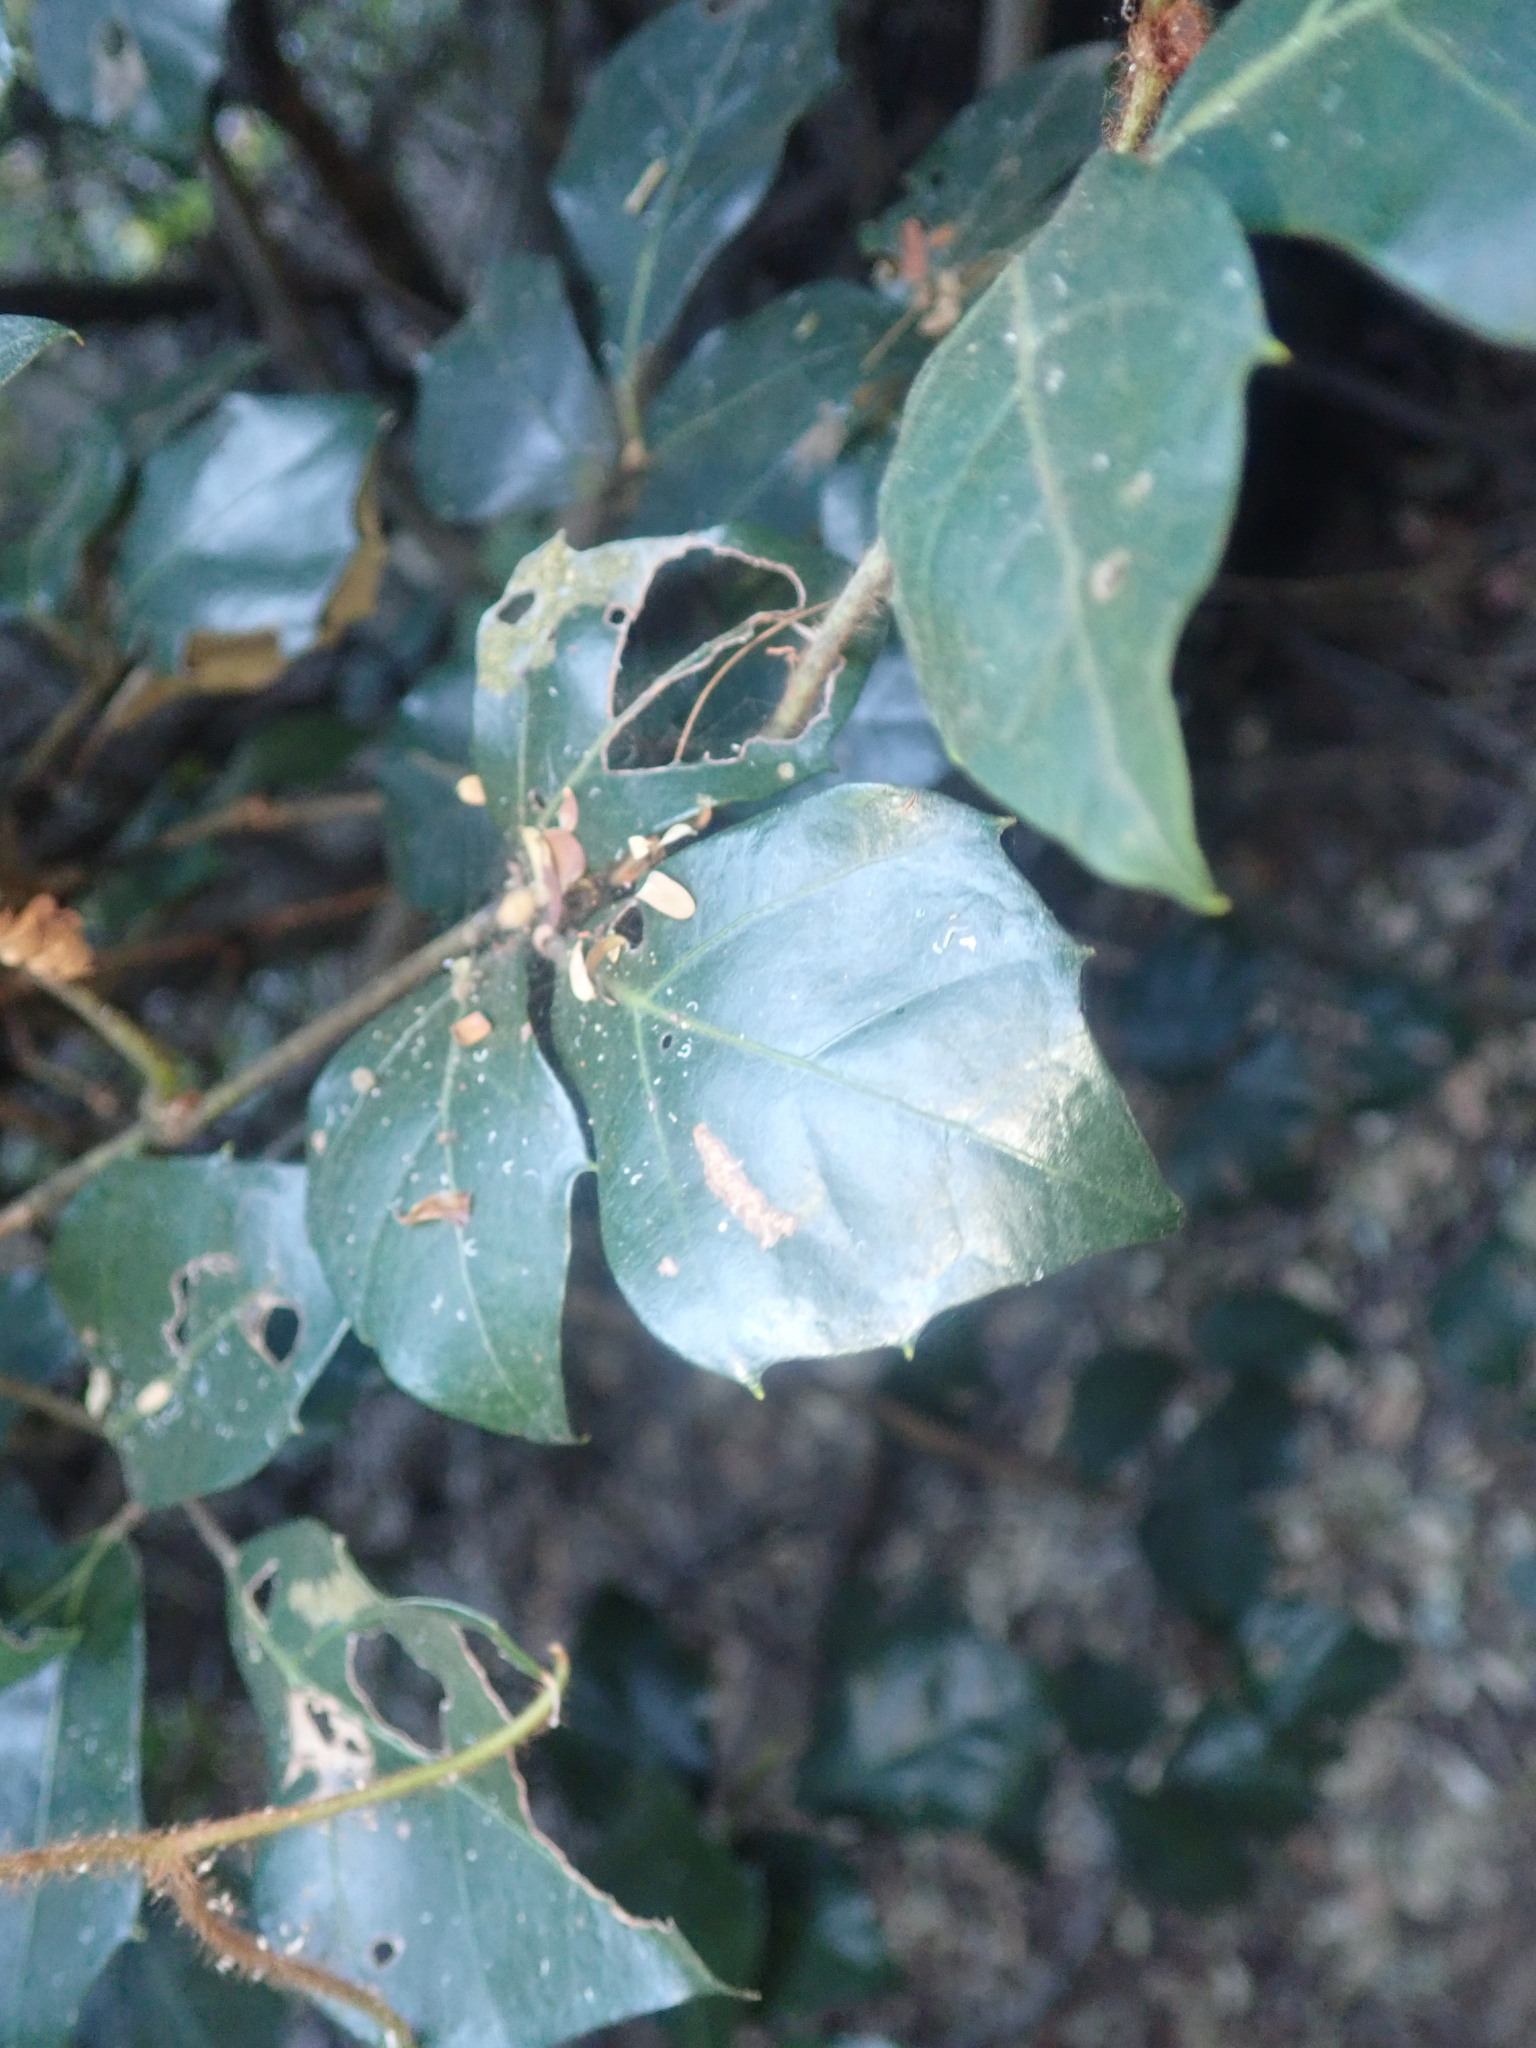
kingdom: Plantae
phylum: Tracheophyta
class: Magnoliopsida
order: Vitales
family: Vitaceae
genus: Rhoicissus
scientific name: Rhoicissus rhomboidea
